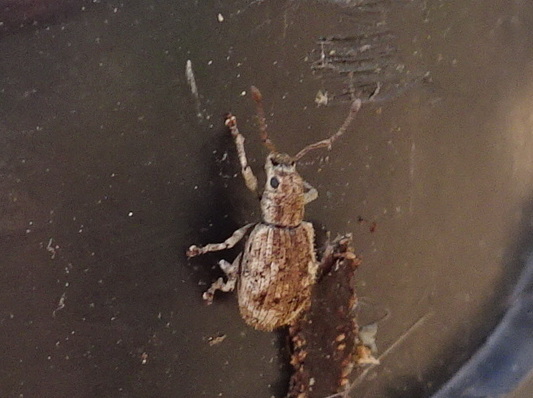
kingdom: Animalia
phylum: Arthropoda
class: Insecta
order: Coleoptera
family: Curculionidae
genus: Pseudoedophrys
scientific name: Pseudoedophrys hilleri
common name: Weevil
